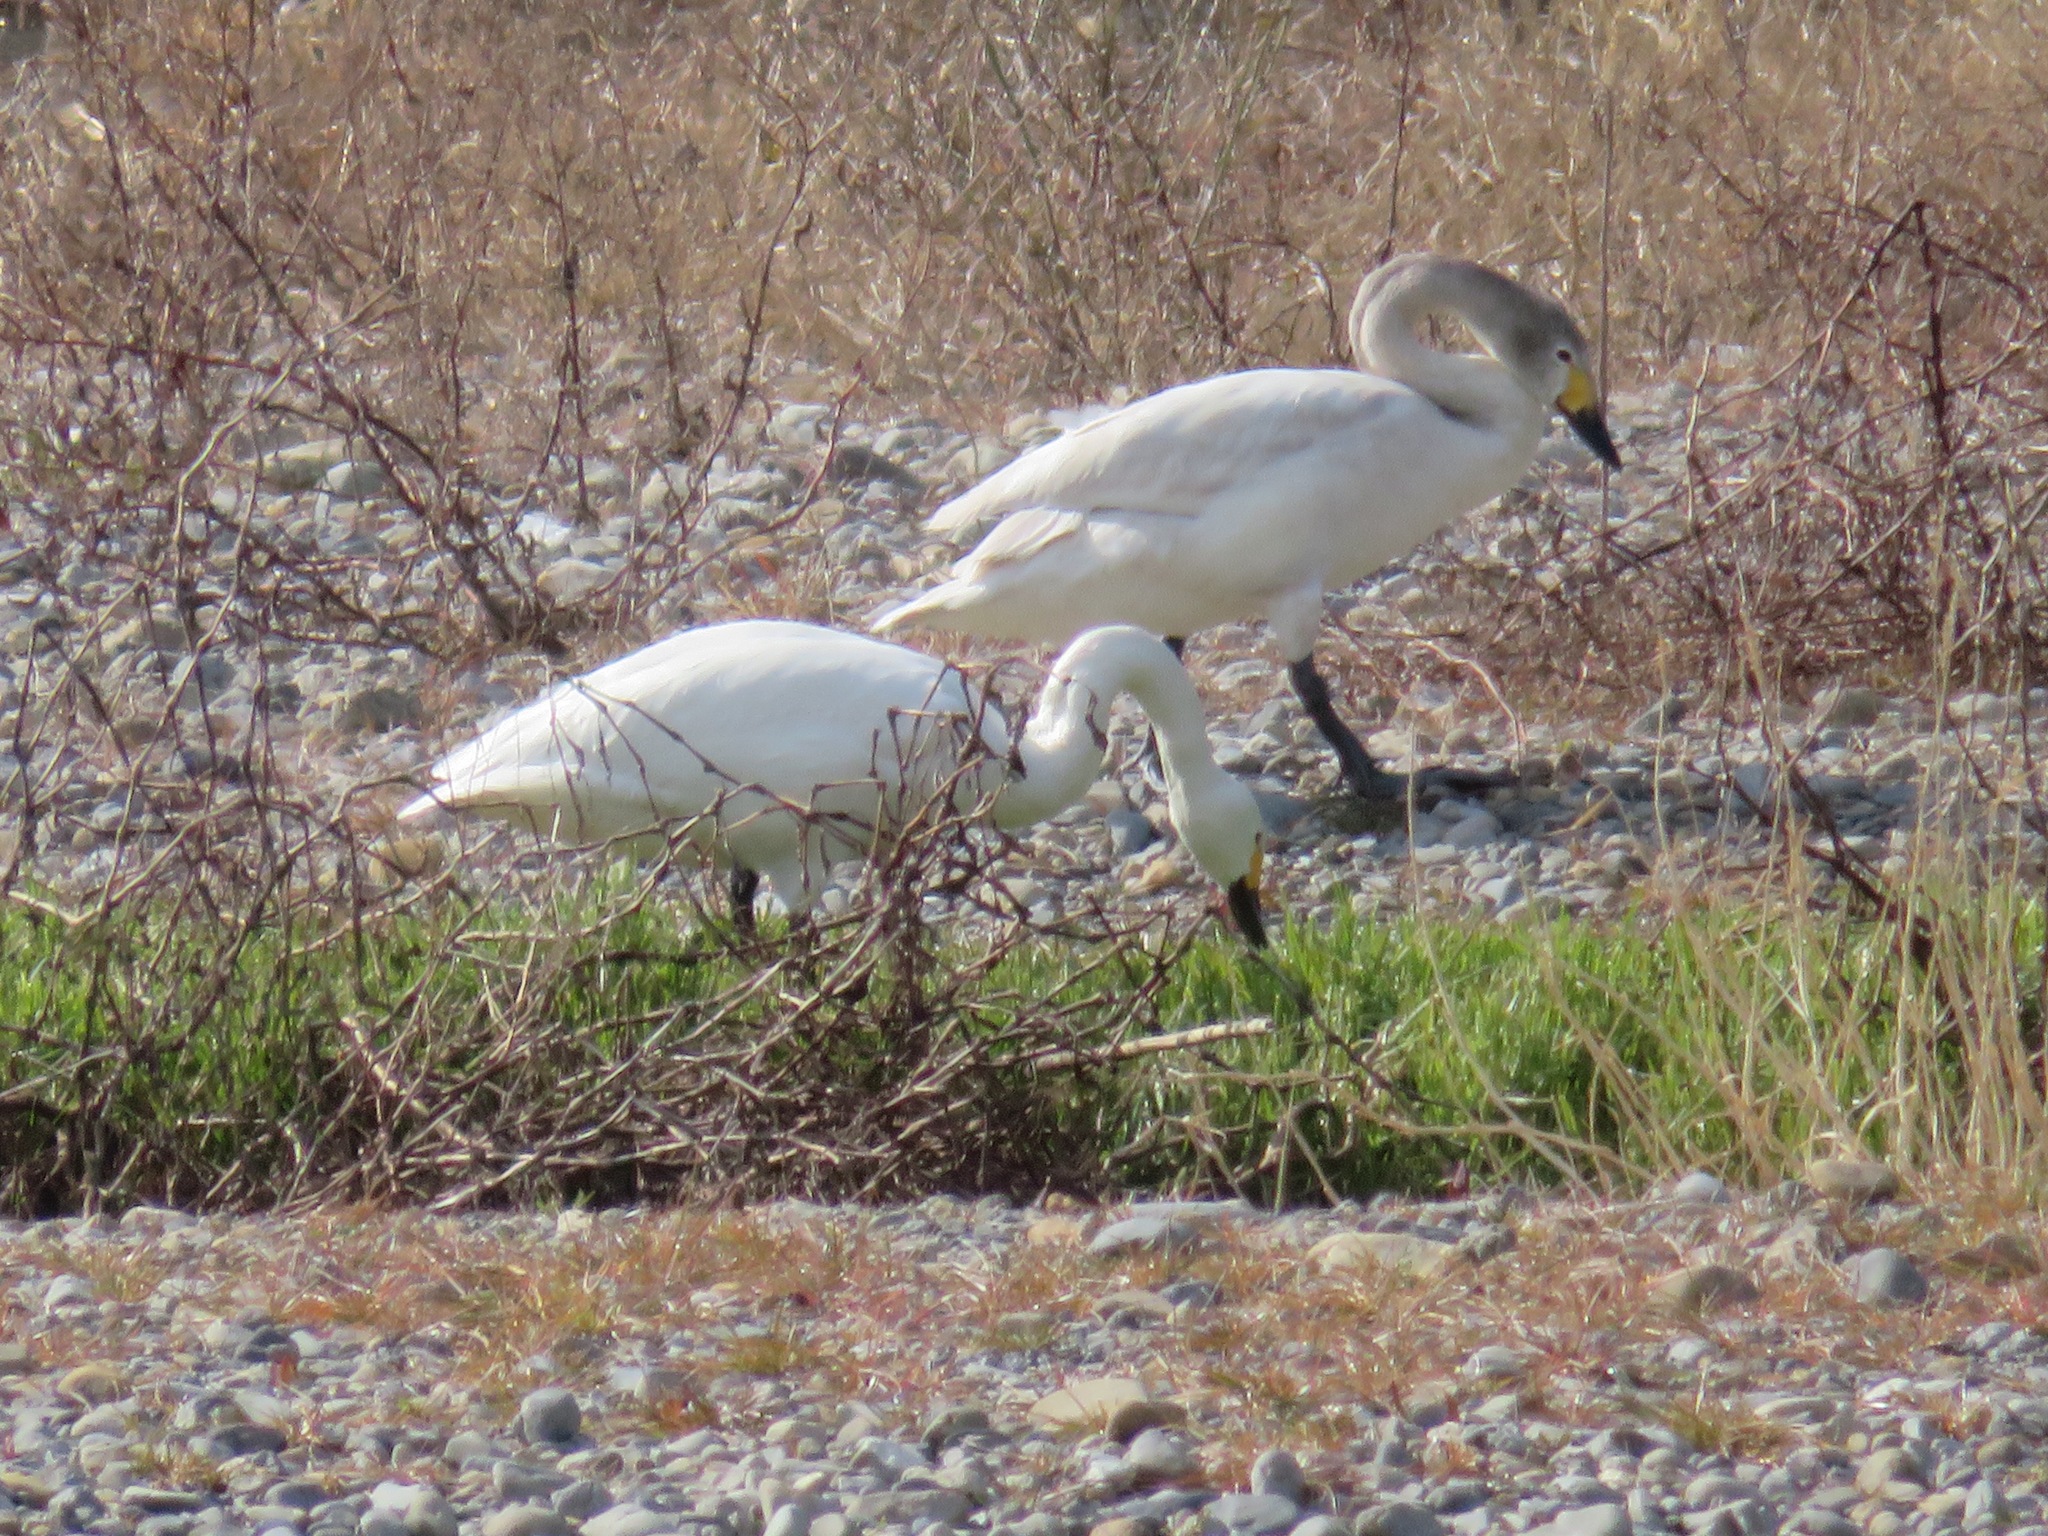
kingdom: Animalia
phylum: Chordata
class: Aves
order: Anseriformes
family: Anatidae
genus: Cygnus
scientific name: Cygnus columbianus
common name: Tundra swan
